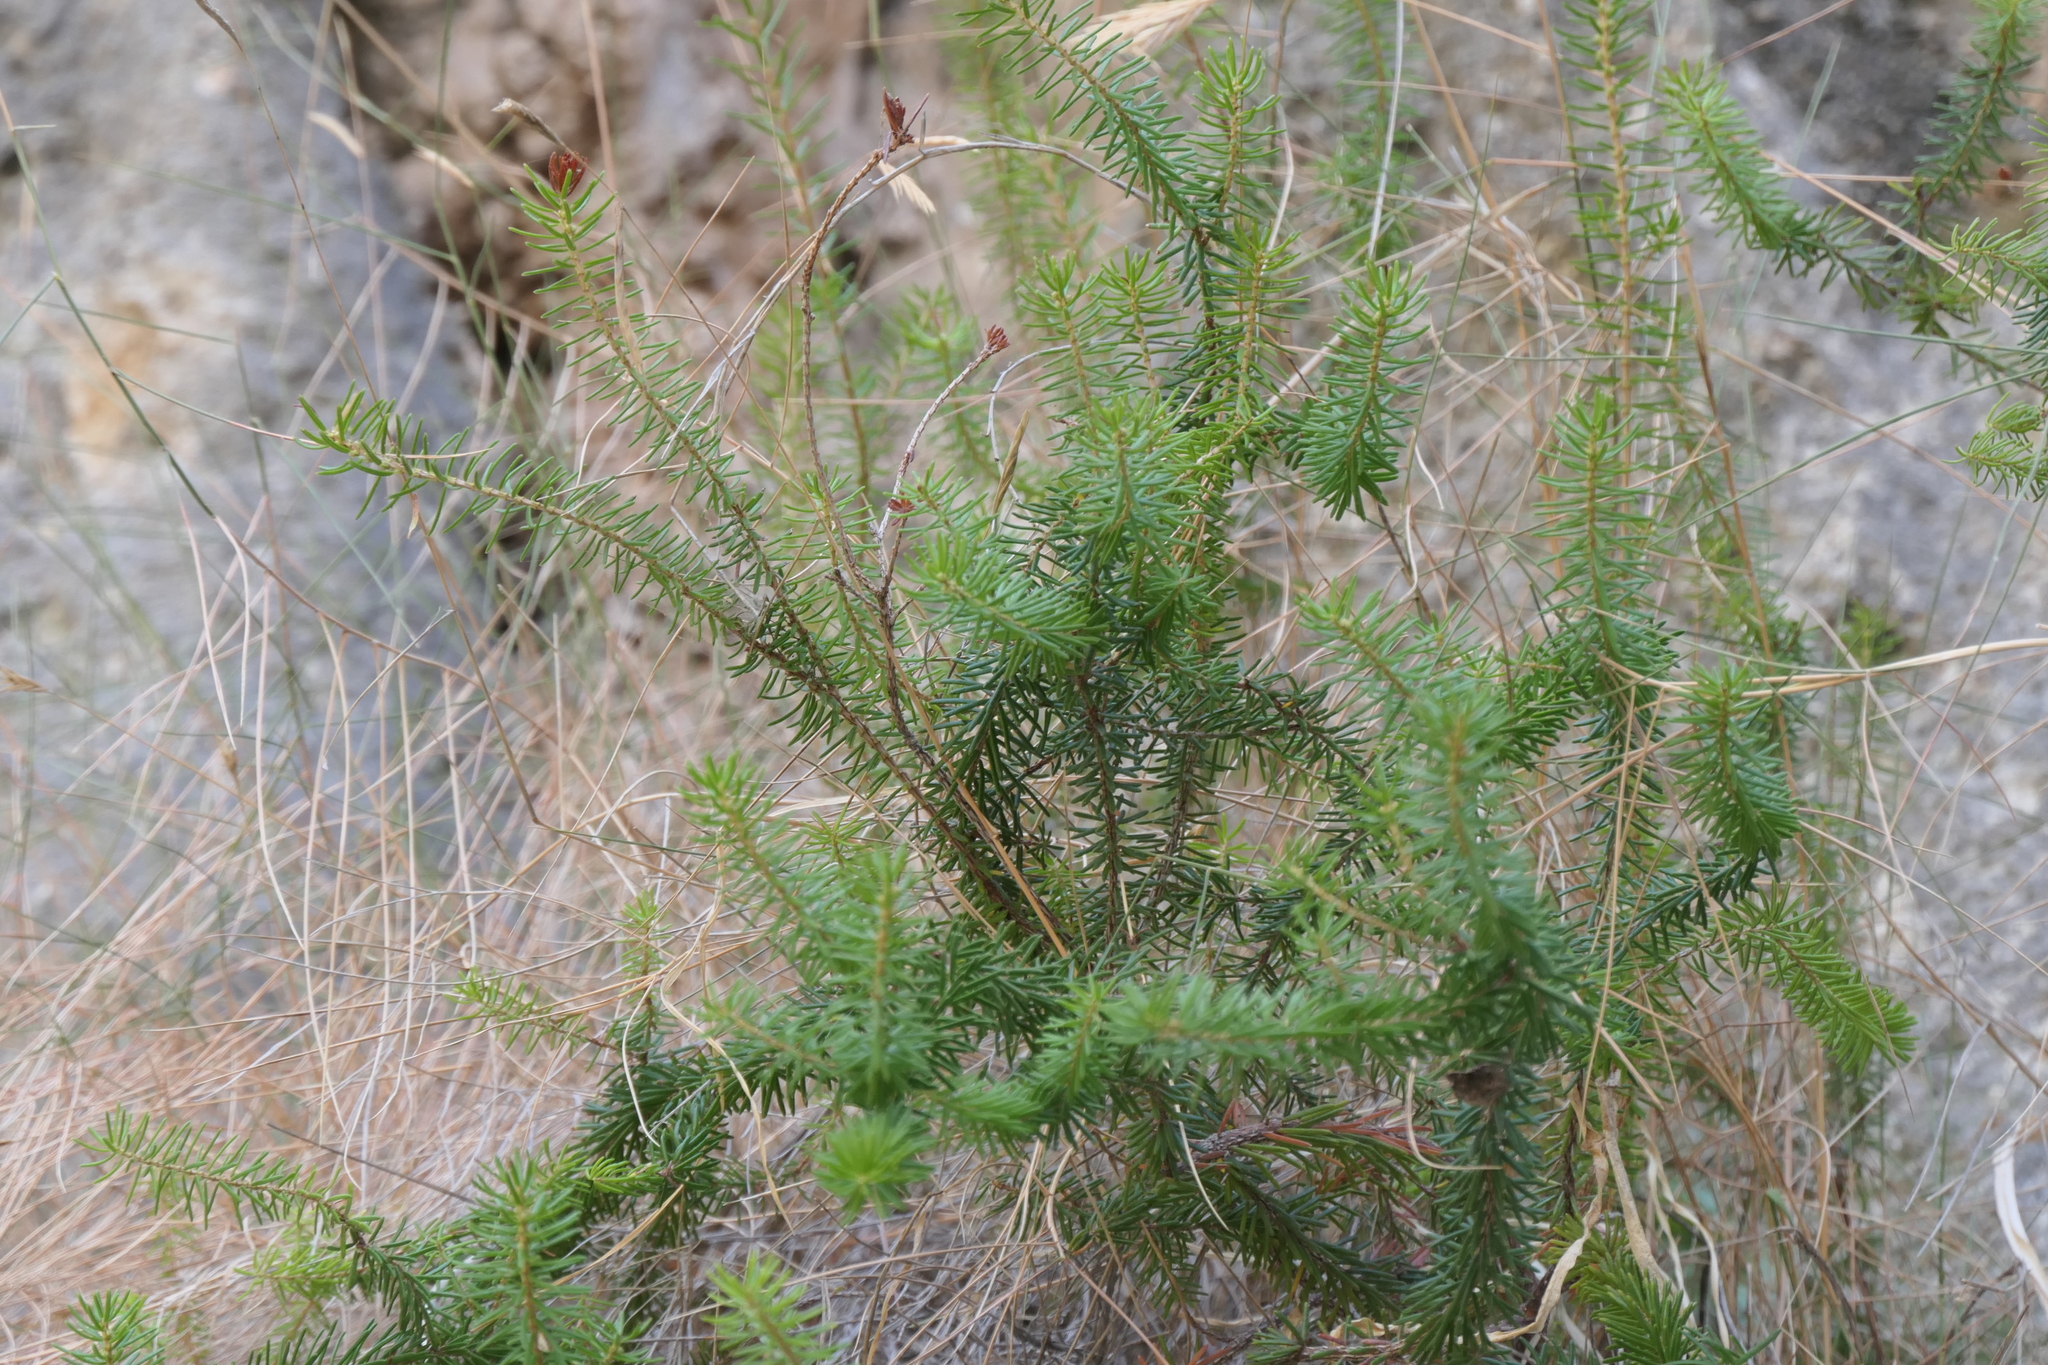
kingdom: Plantae
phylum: Tracheophyta
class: Magnoliopsida
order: Ericales
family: Ericaceae
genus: Erica
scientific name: Erica multiflora
